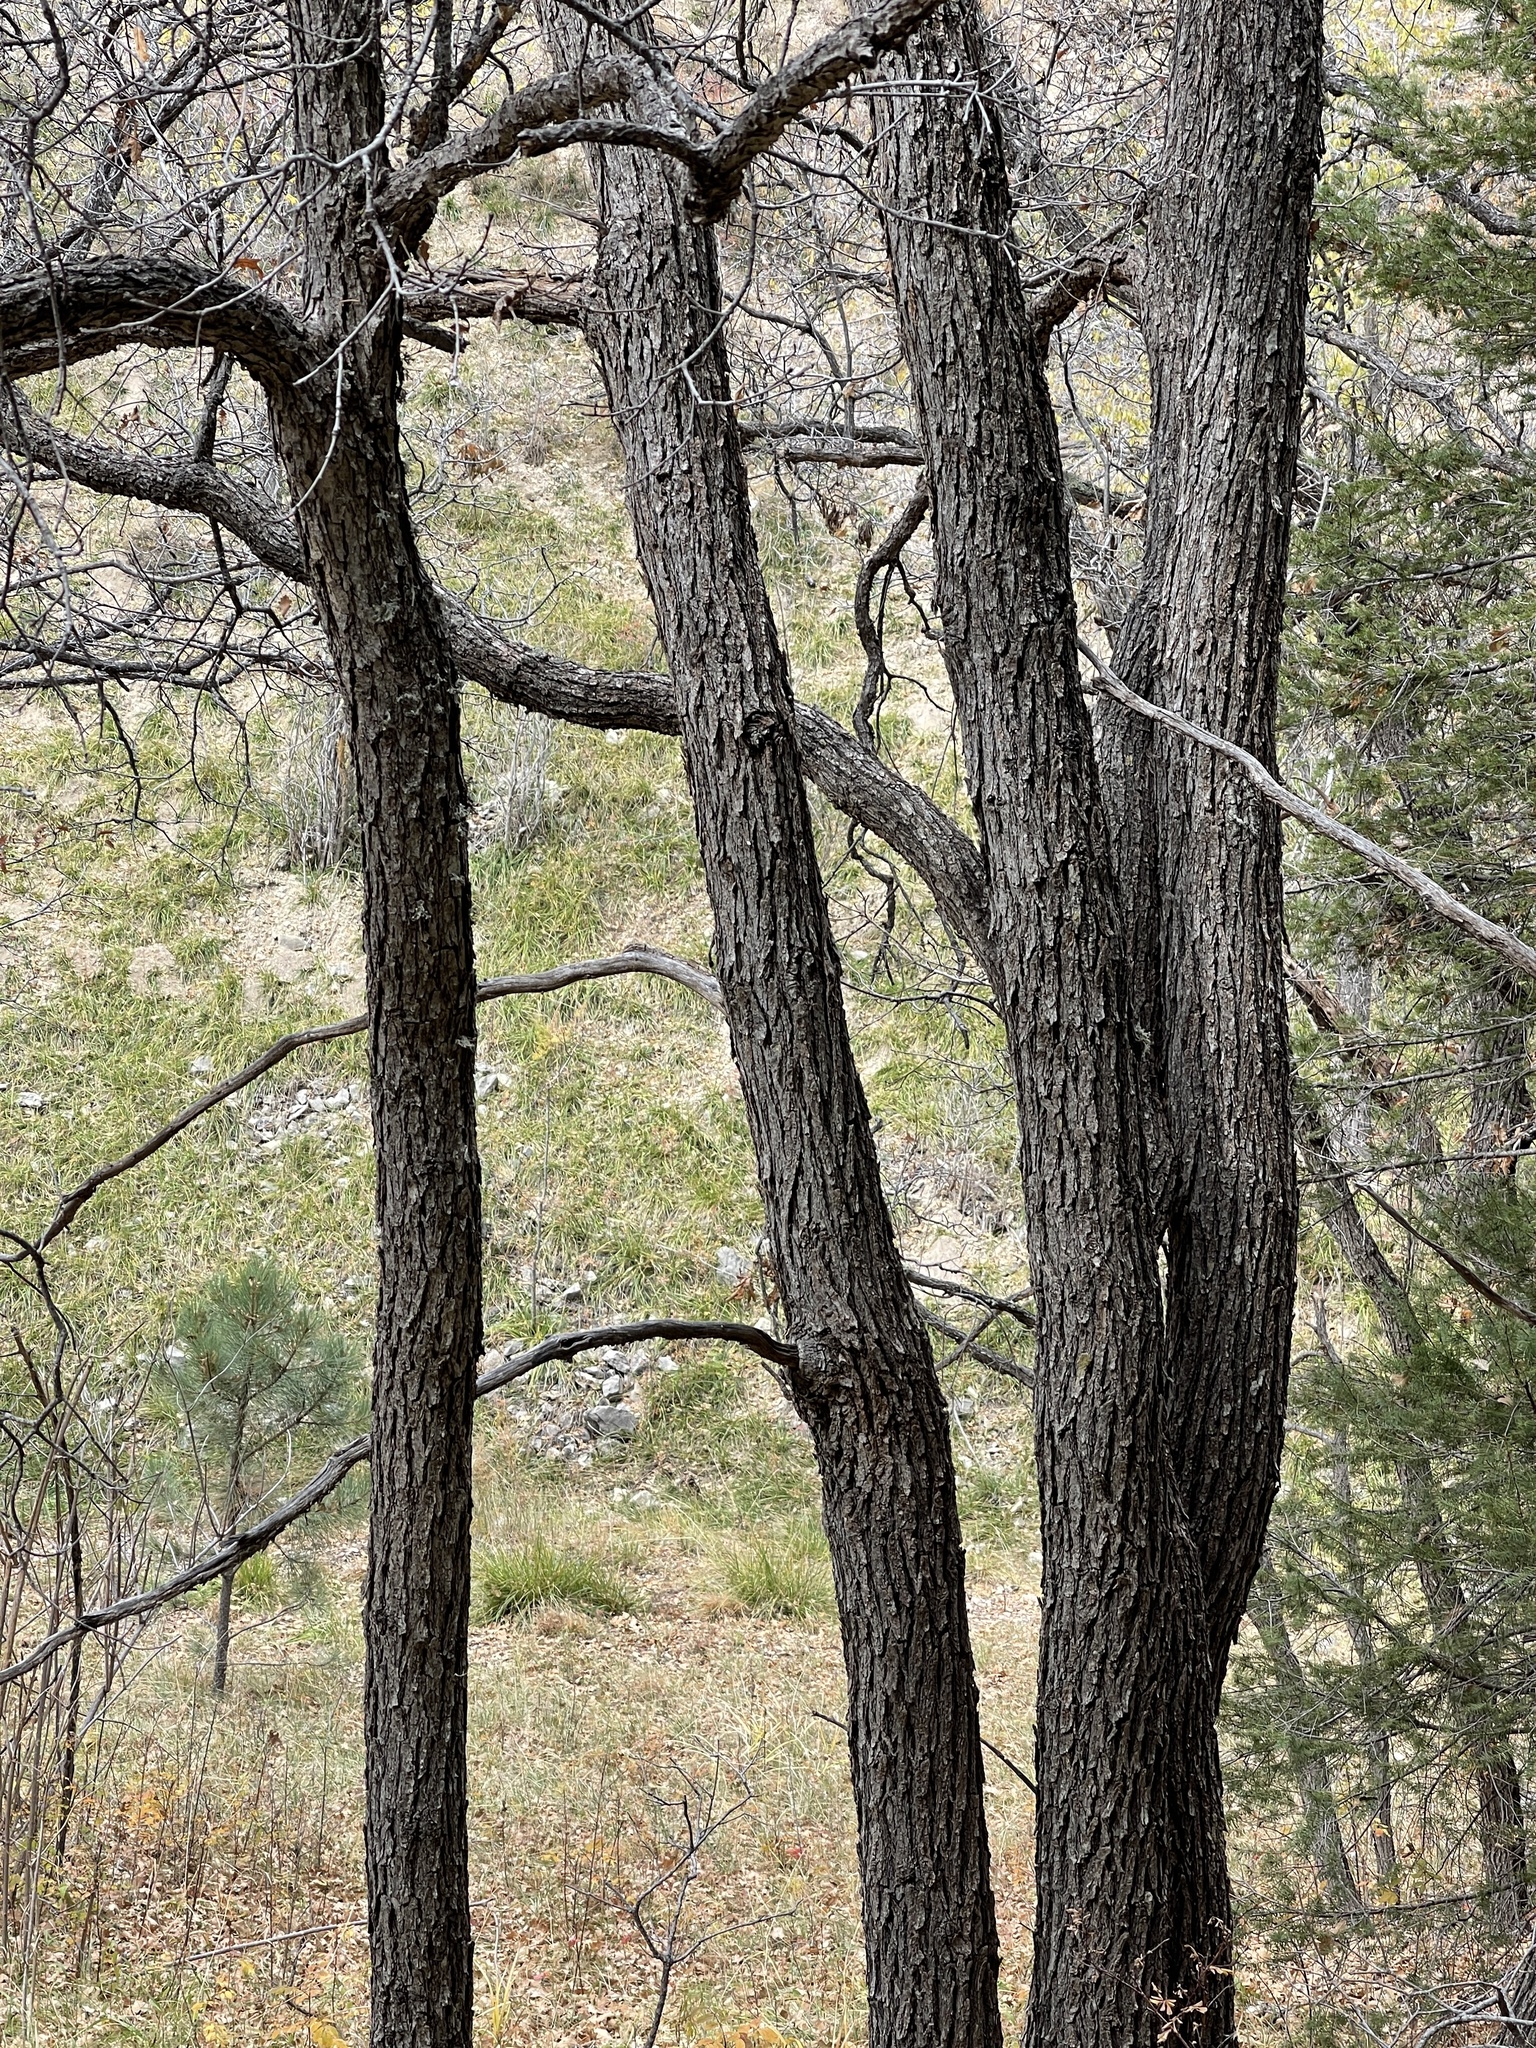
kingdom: Plantae
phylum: Tracheophyta
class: Magnoliopsida
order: Fagales
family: Fagaceae
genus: Quercus
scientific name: Quercus gambelii
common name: Gambel oak
